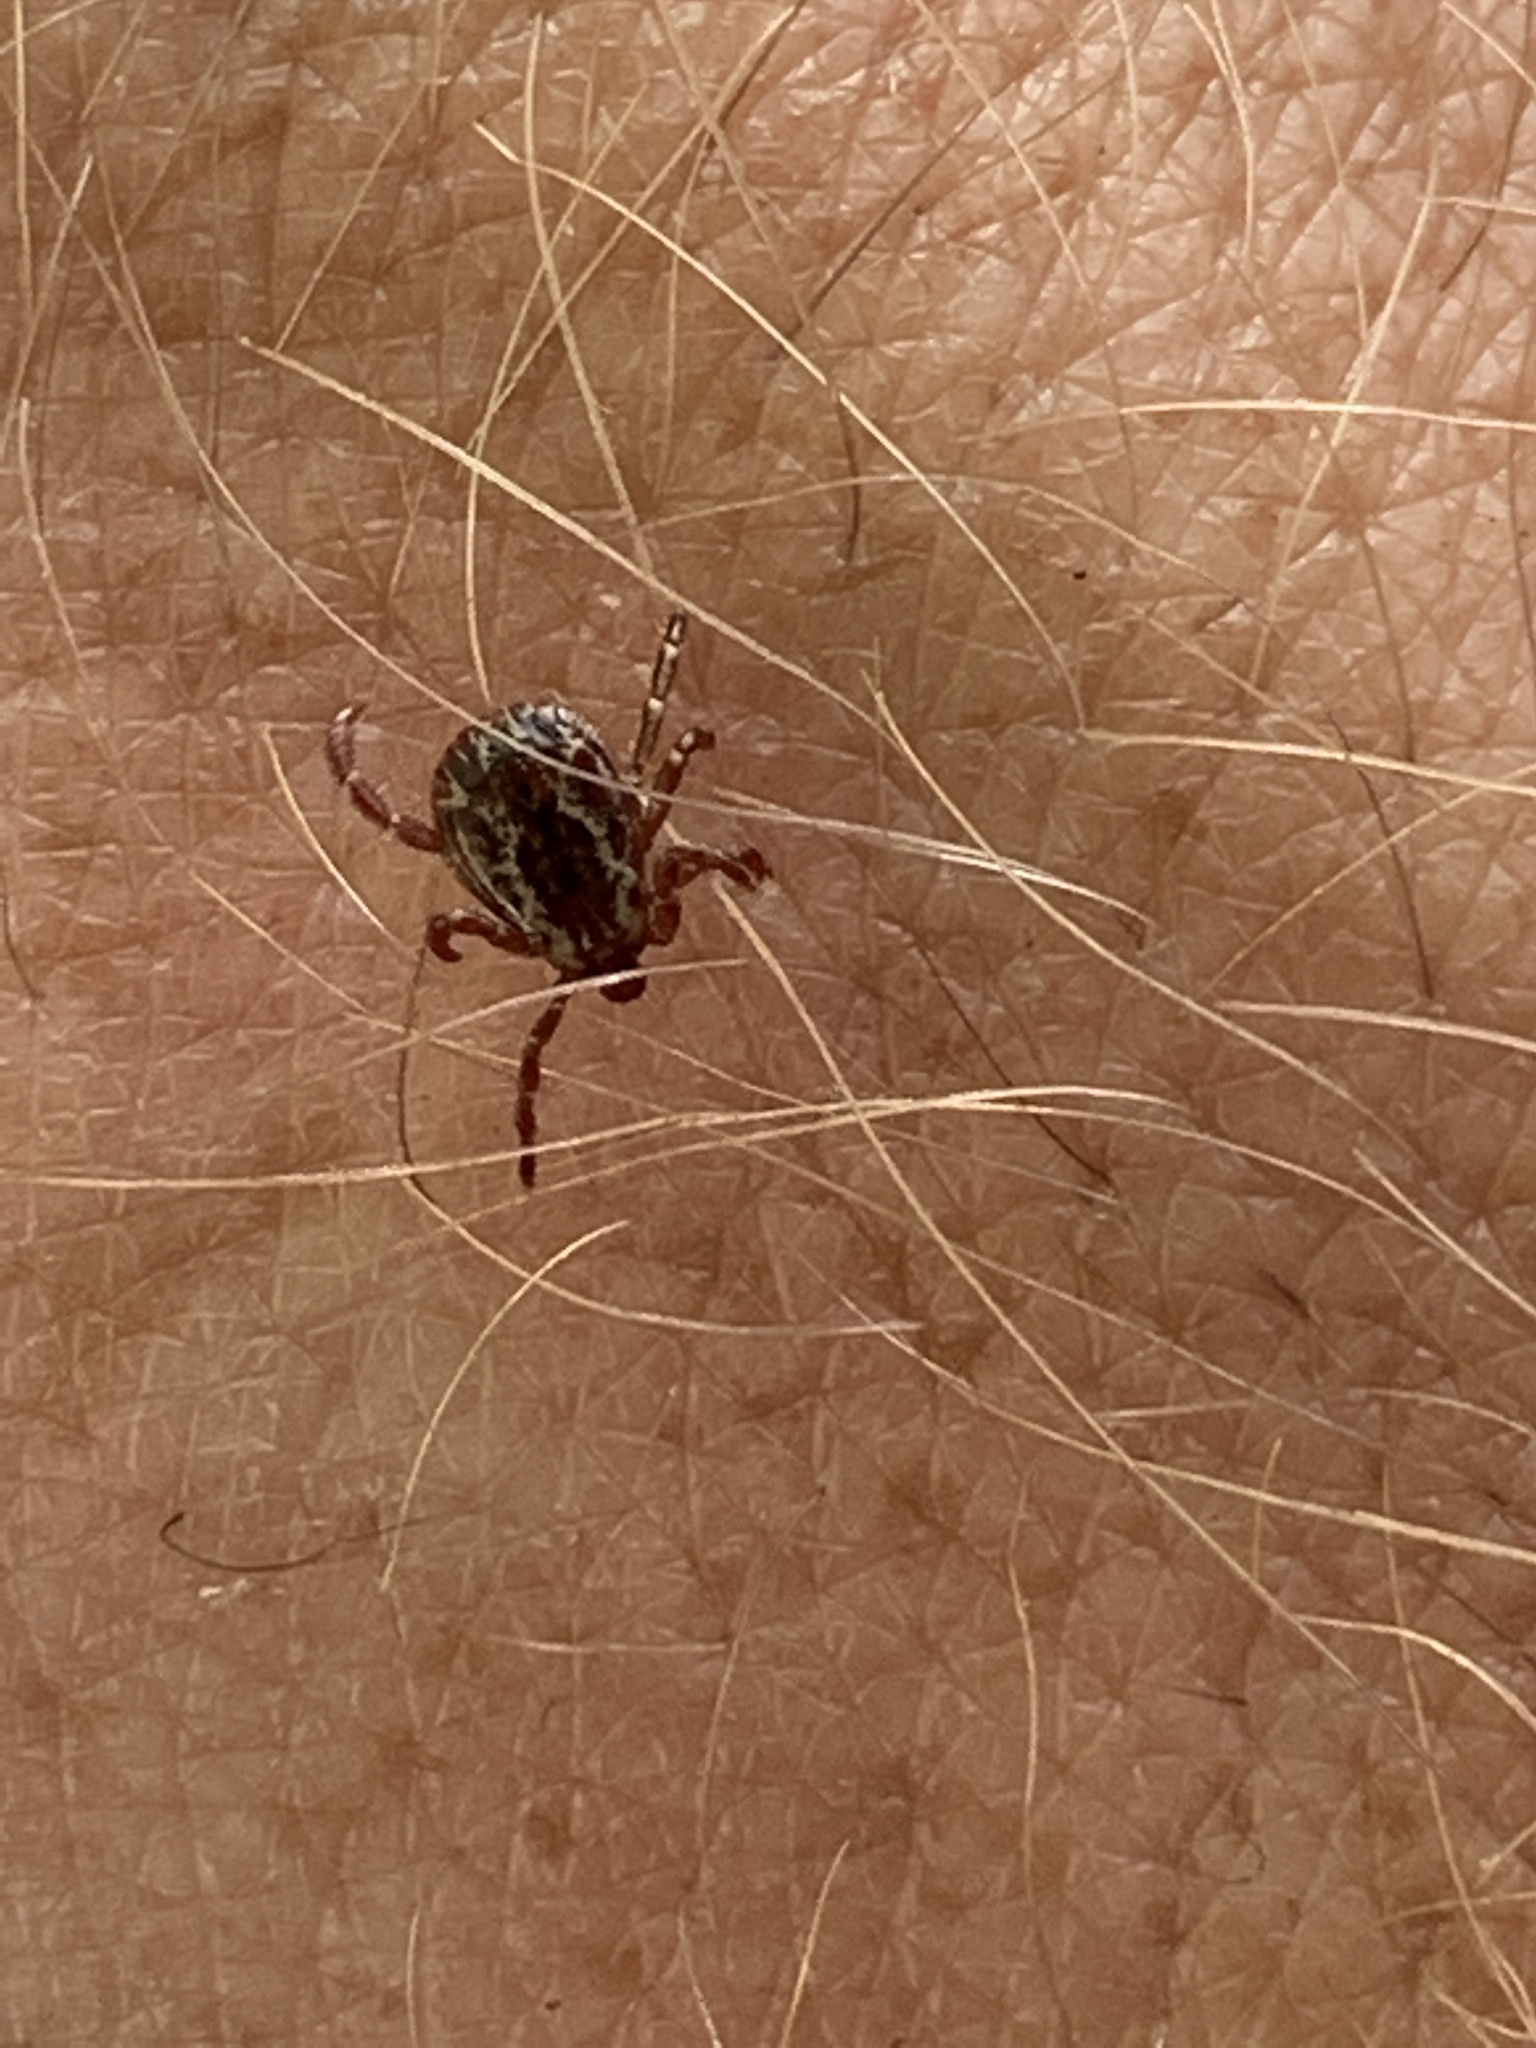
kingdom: Animalia
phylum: Arthropoda
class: Arachnida
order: Ixodida
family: Ixodidae
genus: Dermacentor
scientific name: Dermacentor variabilis
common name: American dog tick
